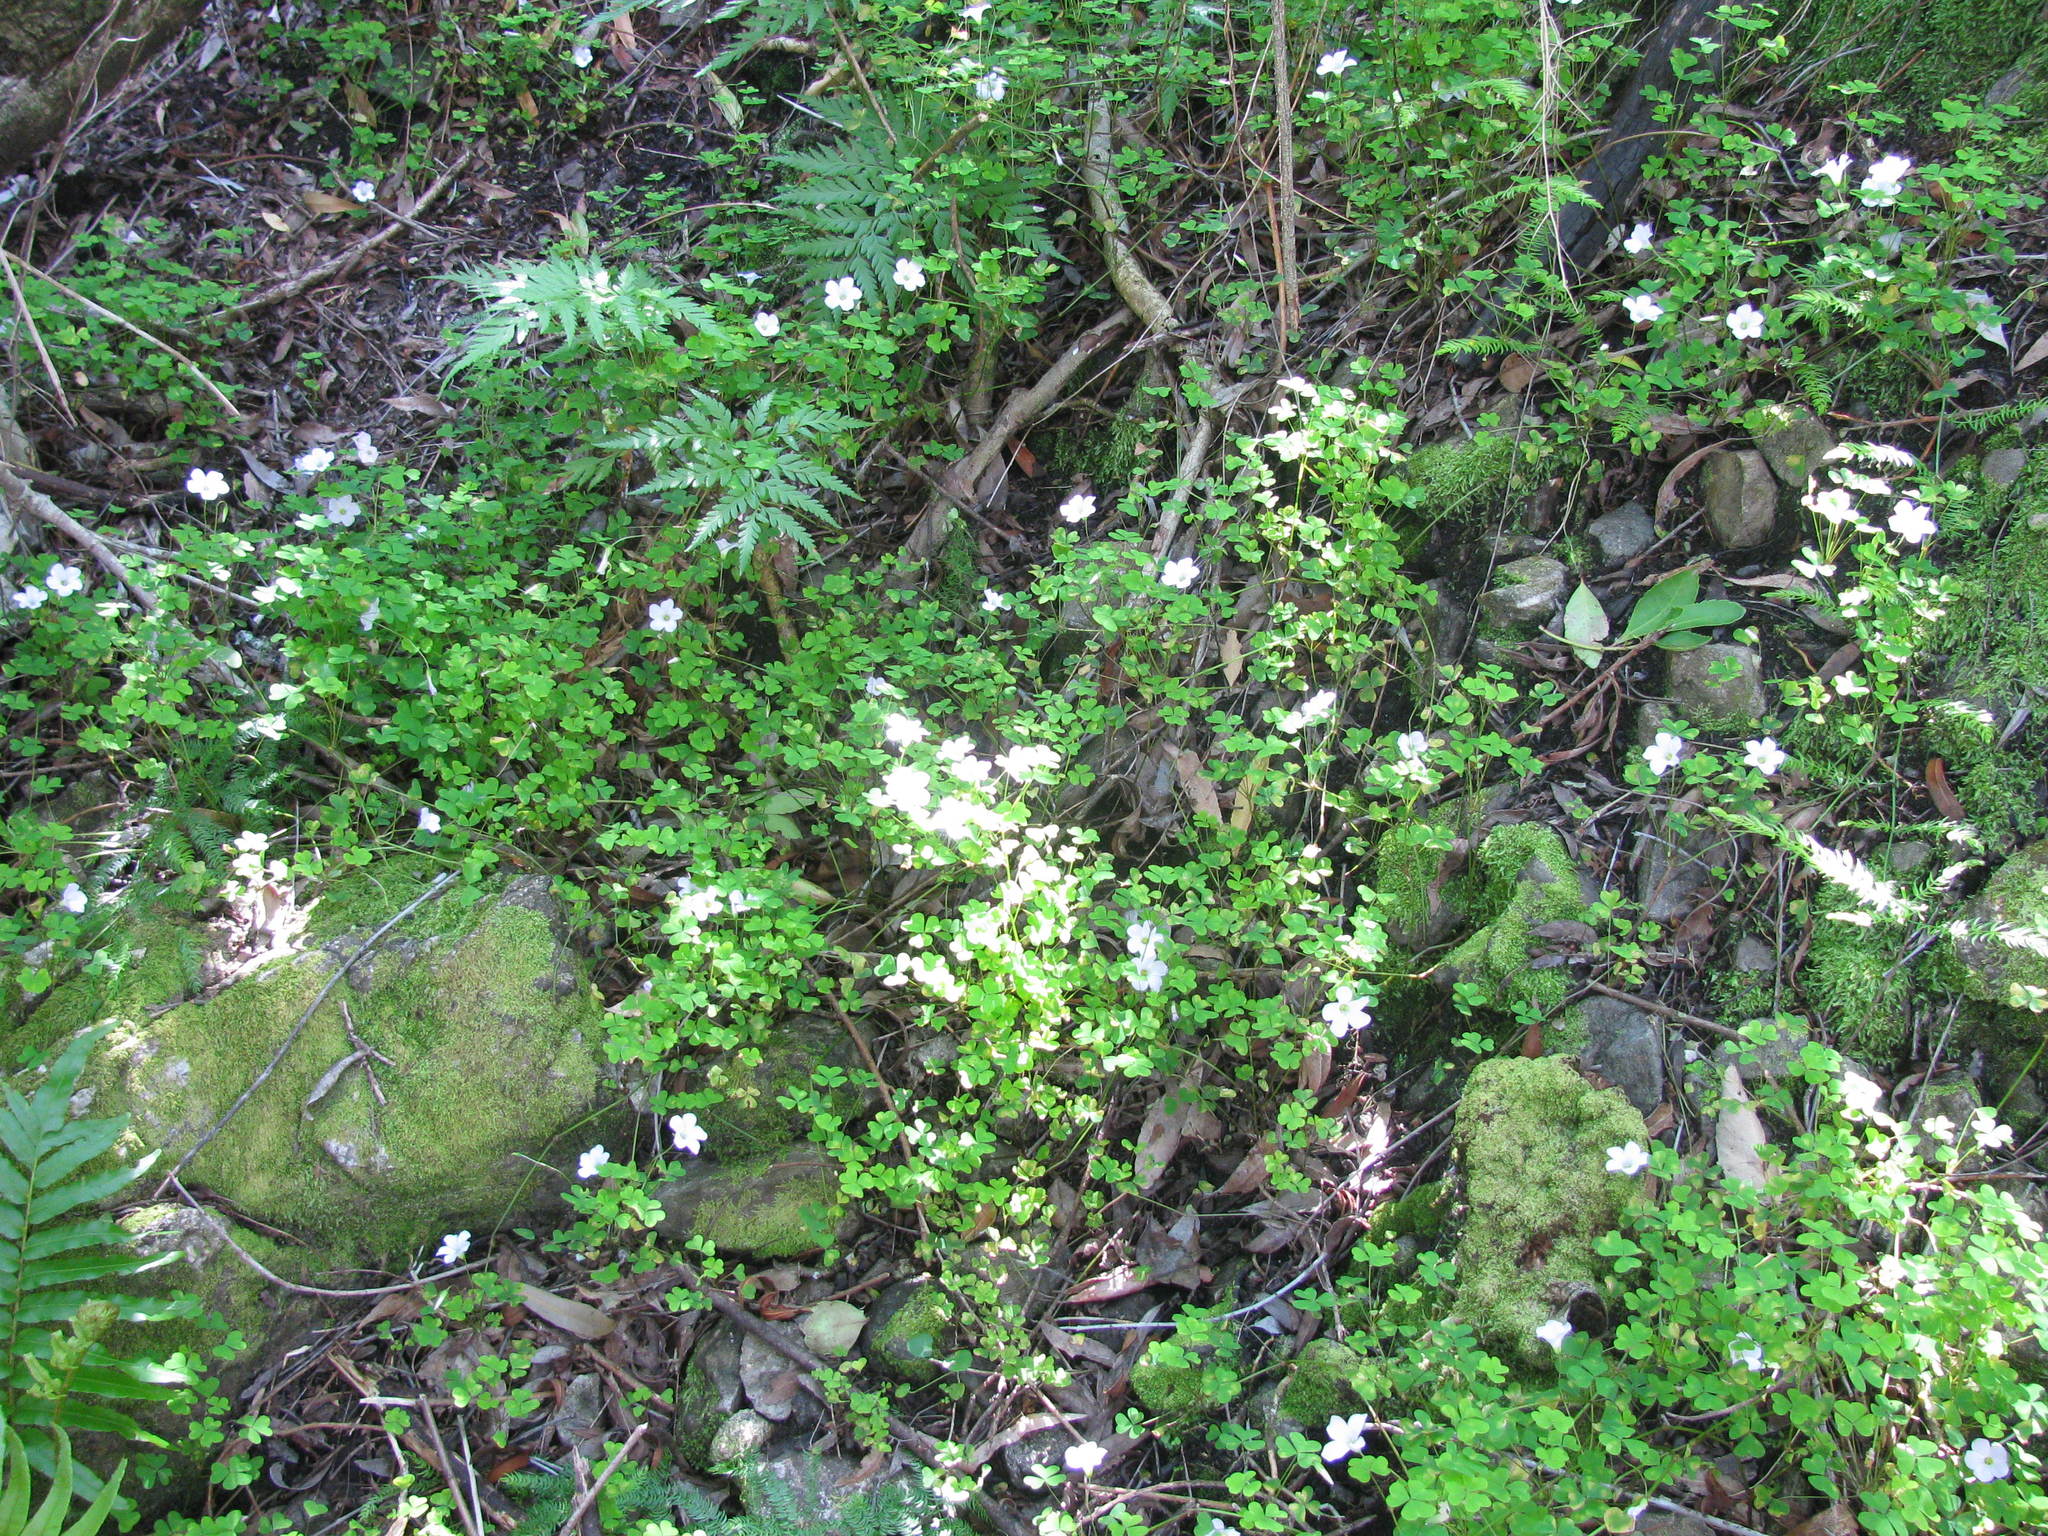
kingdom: Plantae
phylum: Tracheophyta
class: Magnoliopsida
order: Oxalidales
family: Oxalidaceae
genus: Oxalis
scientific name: Oxalis incarnata
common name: Pale pink-sorrel
